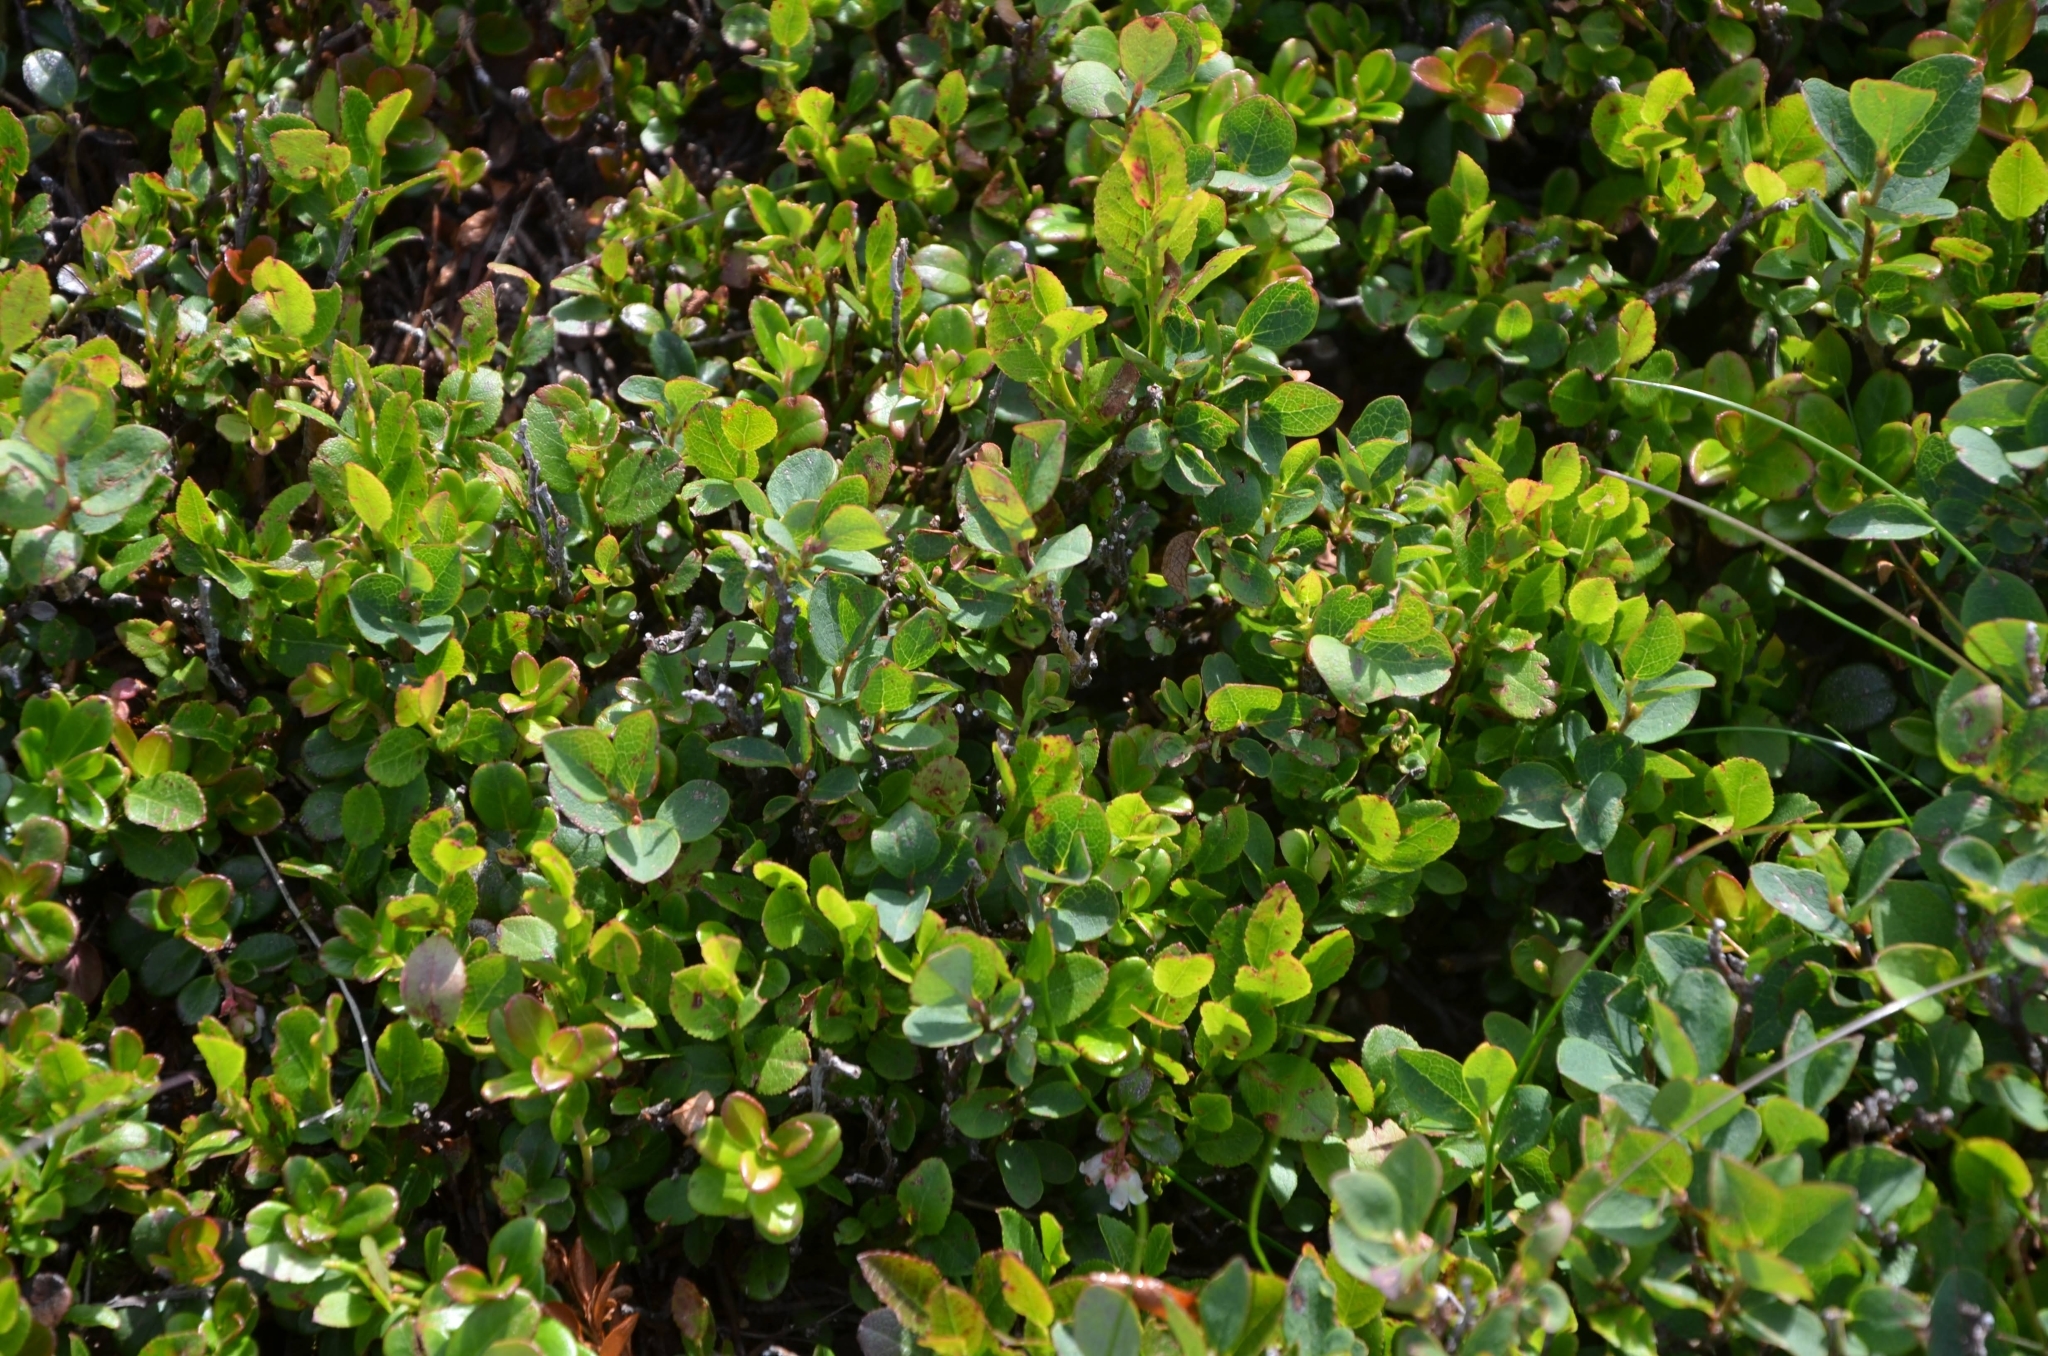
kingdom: Plantae
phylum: Tracheophyta
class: Magnoliopsida
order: Ericales
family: Ericaceae
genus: Vaccinium
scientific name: Vaccinium uliginosum
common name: Bog bilberry
